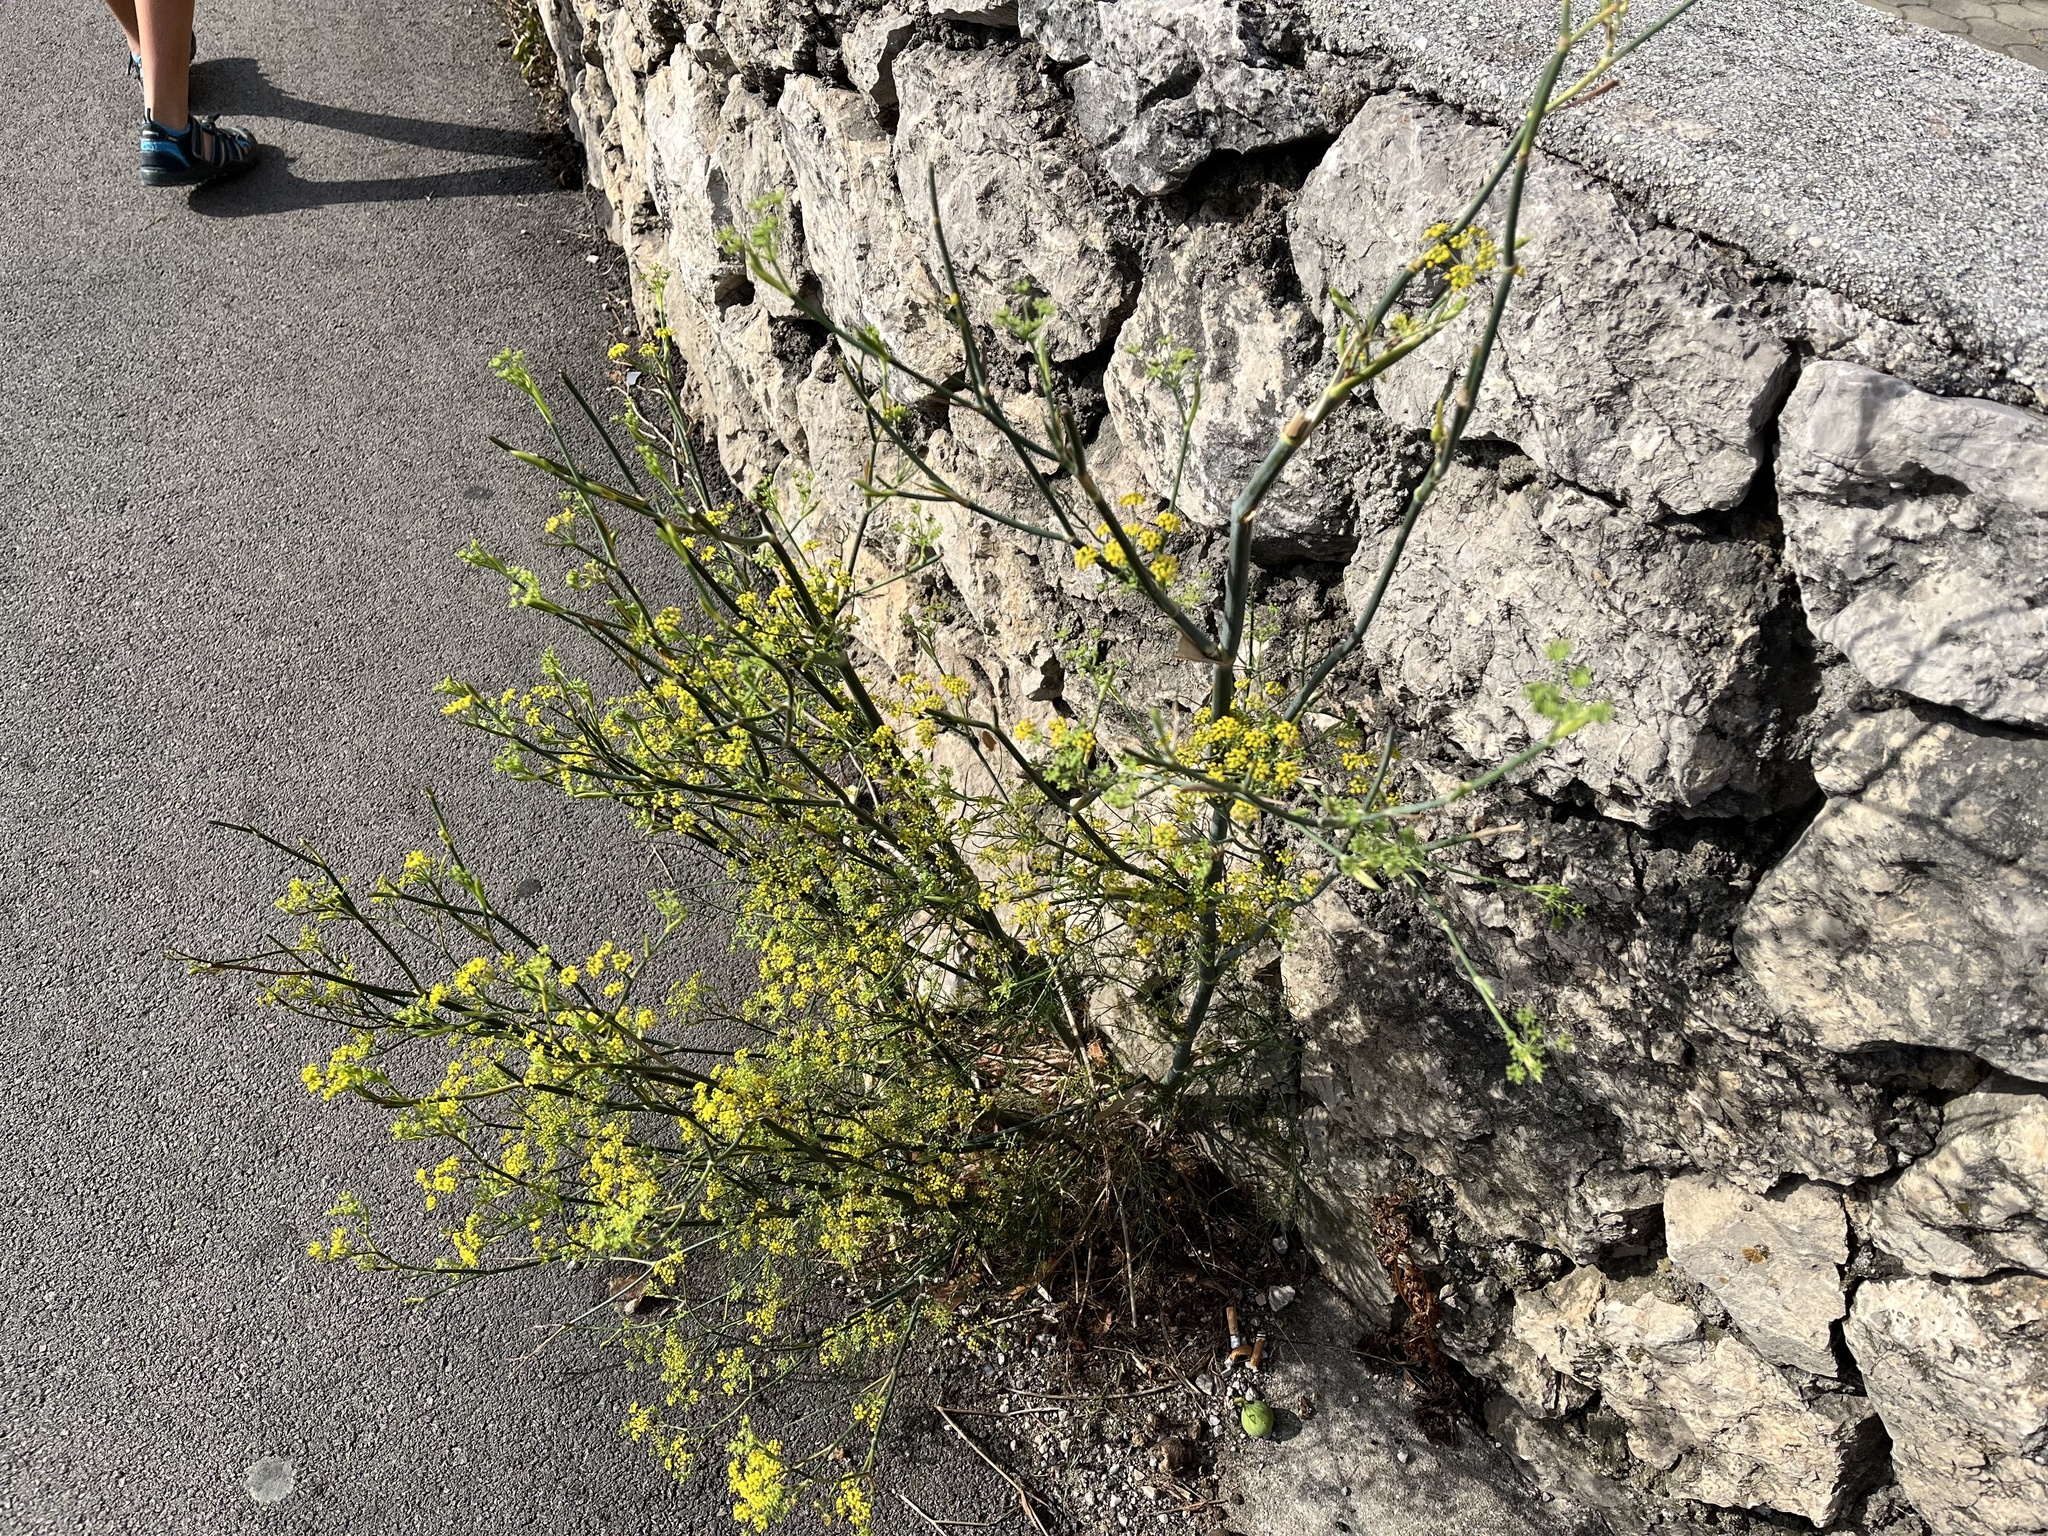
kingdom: Plantae
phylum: Tracheophyta
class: Magnoliopsida
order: Apiales
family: Apiaceae
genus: Foeniculum
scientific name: Foeniculum vulgare
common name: Fennel
